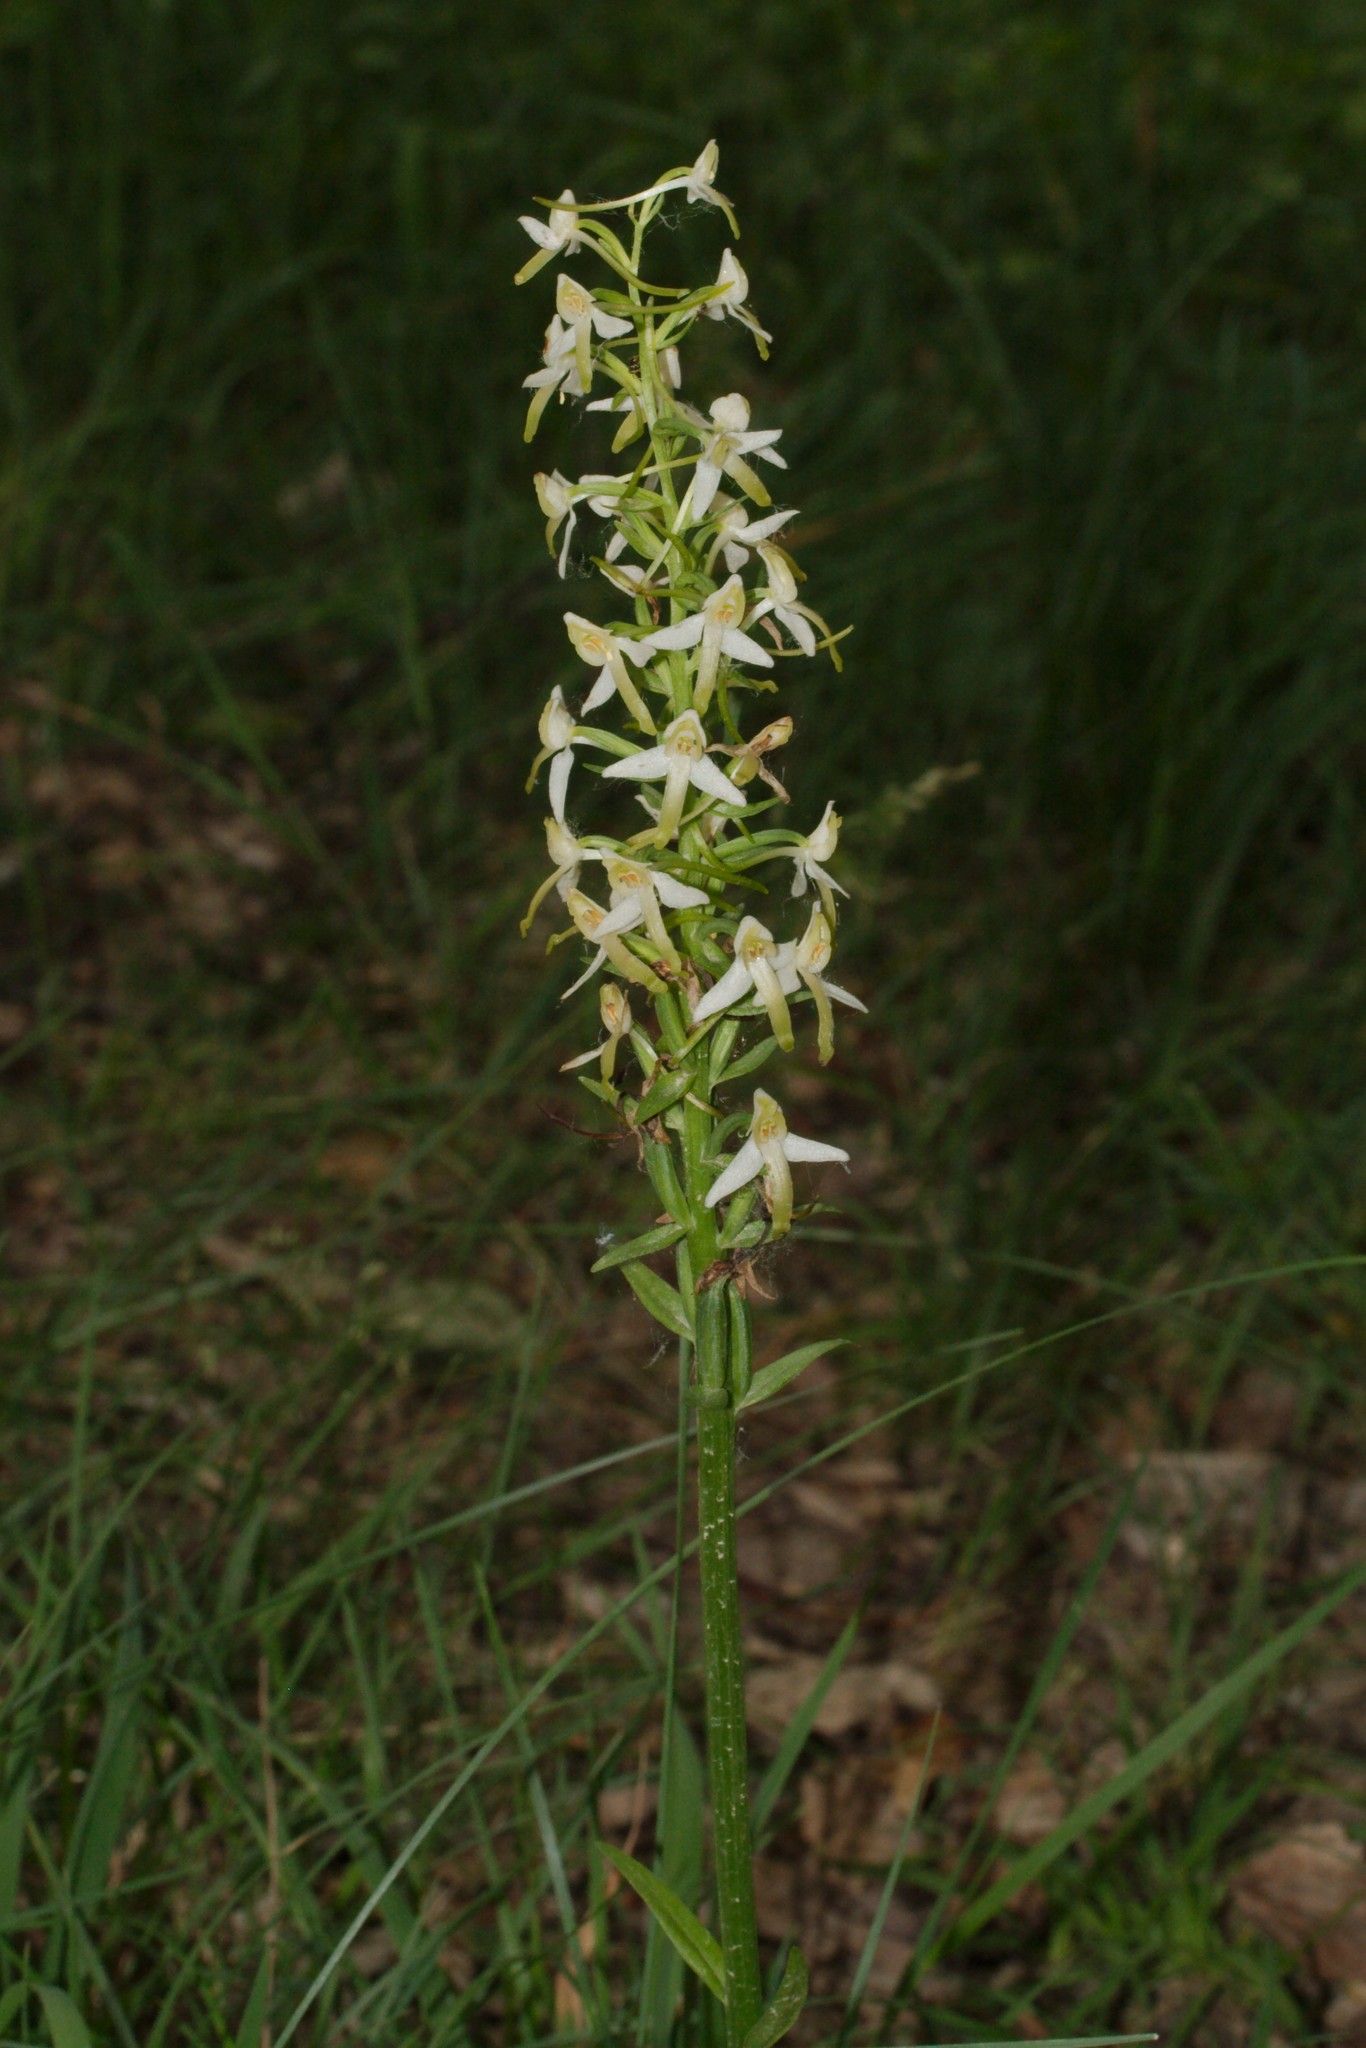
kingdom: Plantae
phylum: Tracheophyta
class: Liliopsida
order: Asparagales
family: Orchidaceae
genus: Platanthera
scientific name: Platanthera bifolia
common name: Lesser butterfly-orchid
